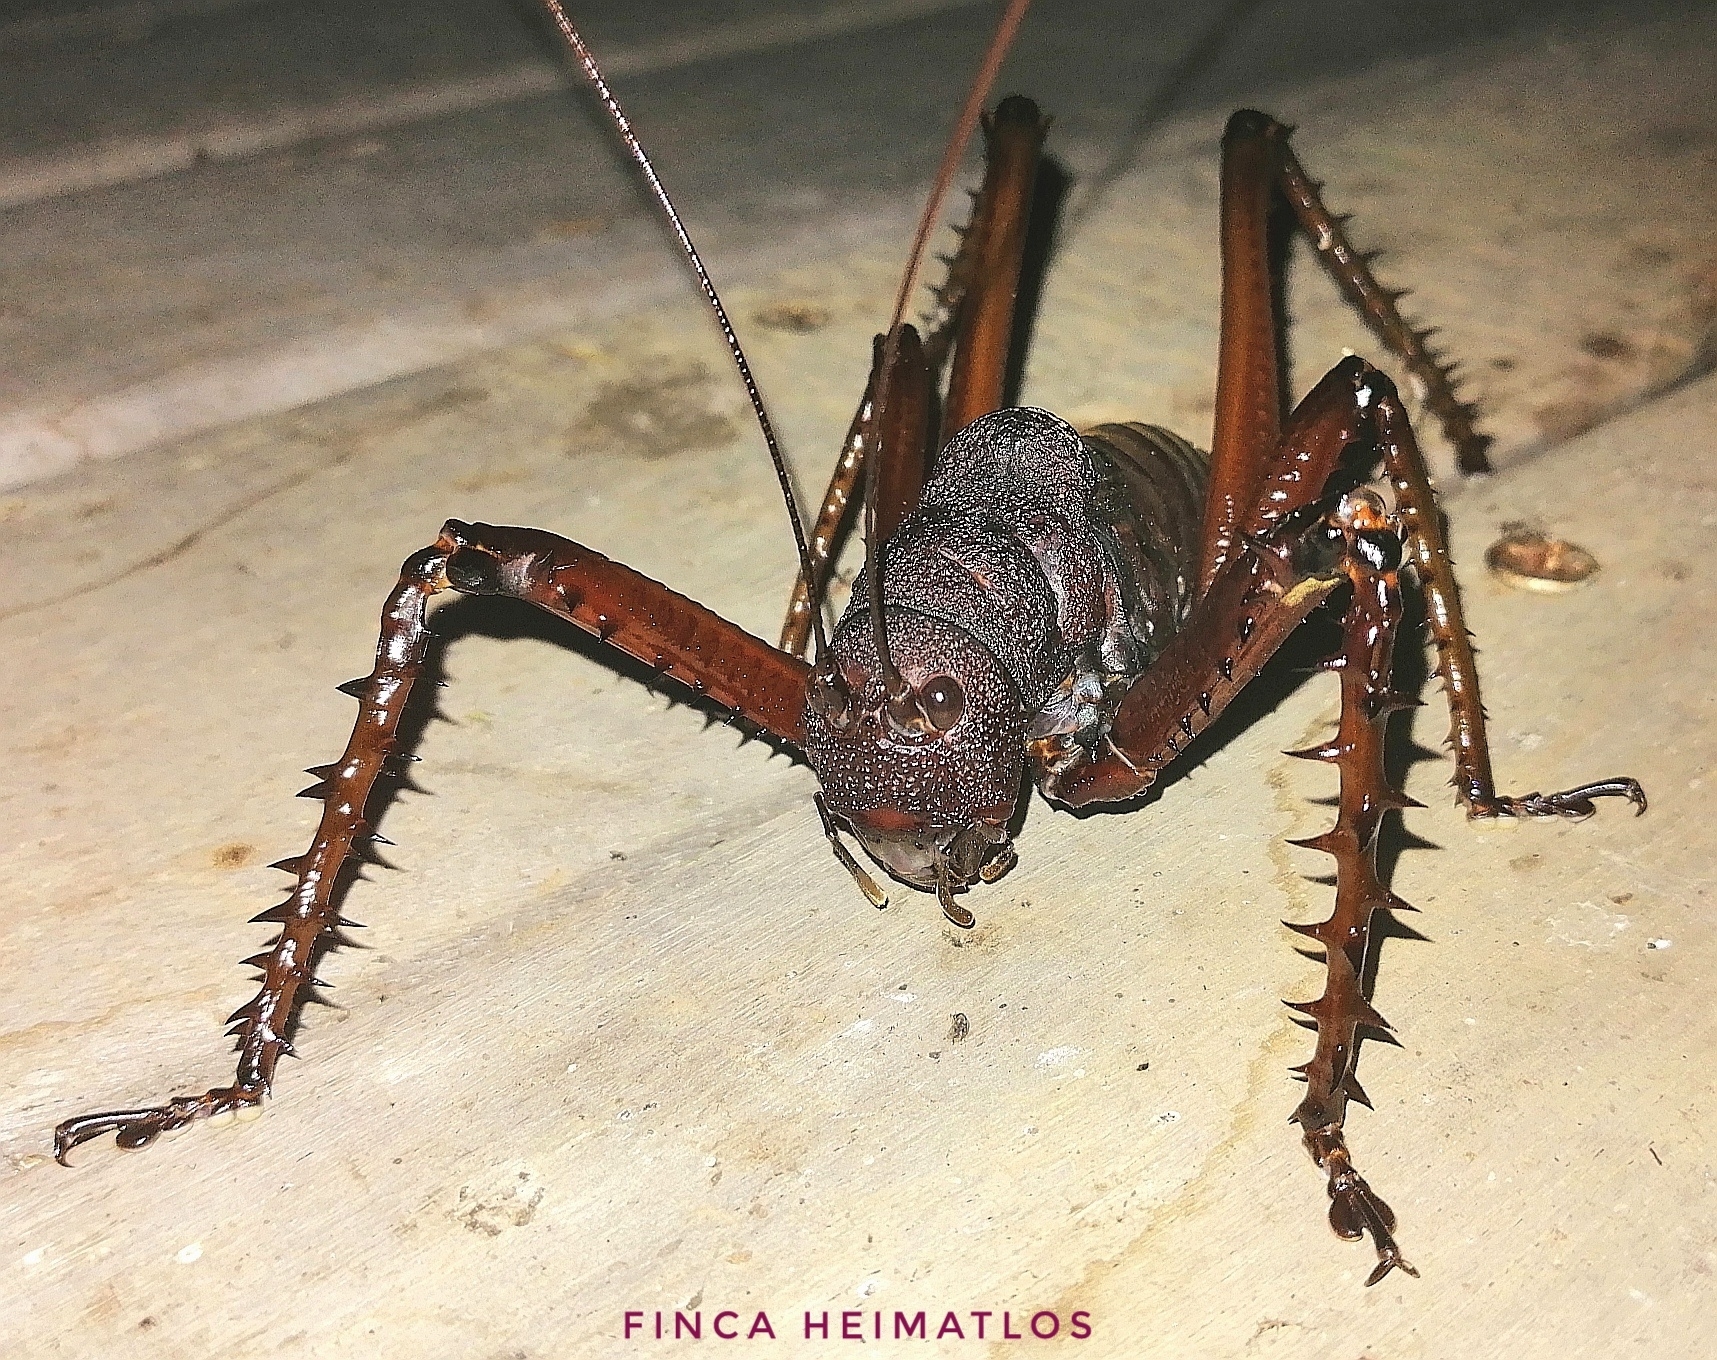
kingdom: Animalia
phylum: Arthropoda
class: Insecta
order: Orthoptera
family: Tettigoniidae
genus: Panoploscelis
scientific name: Panoploscelis specularis
